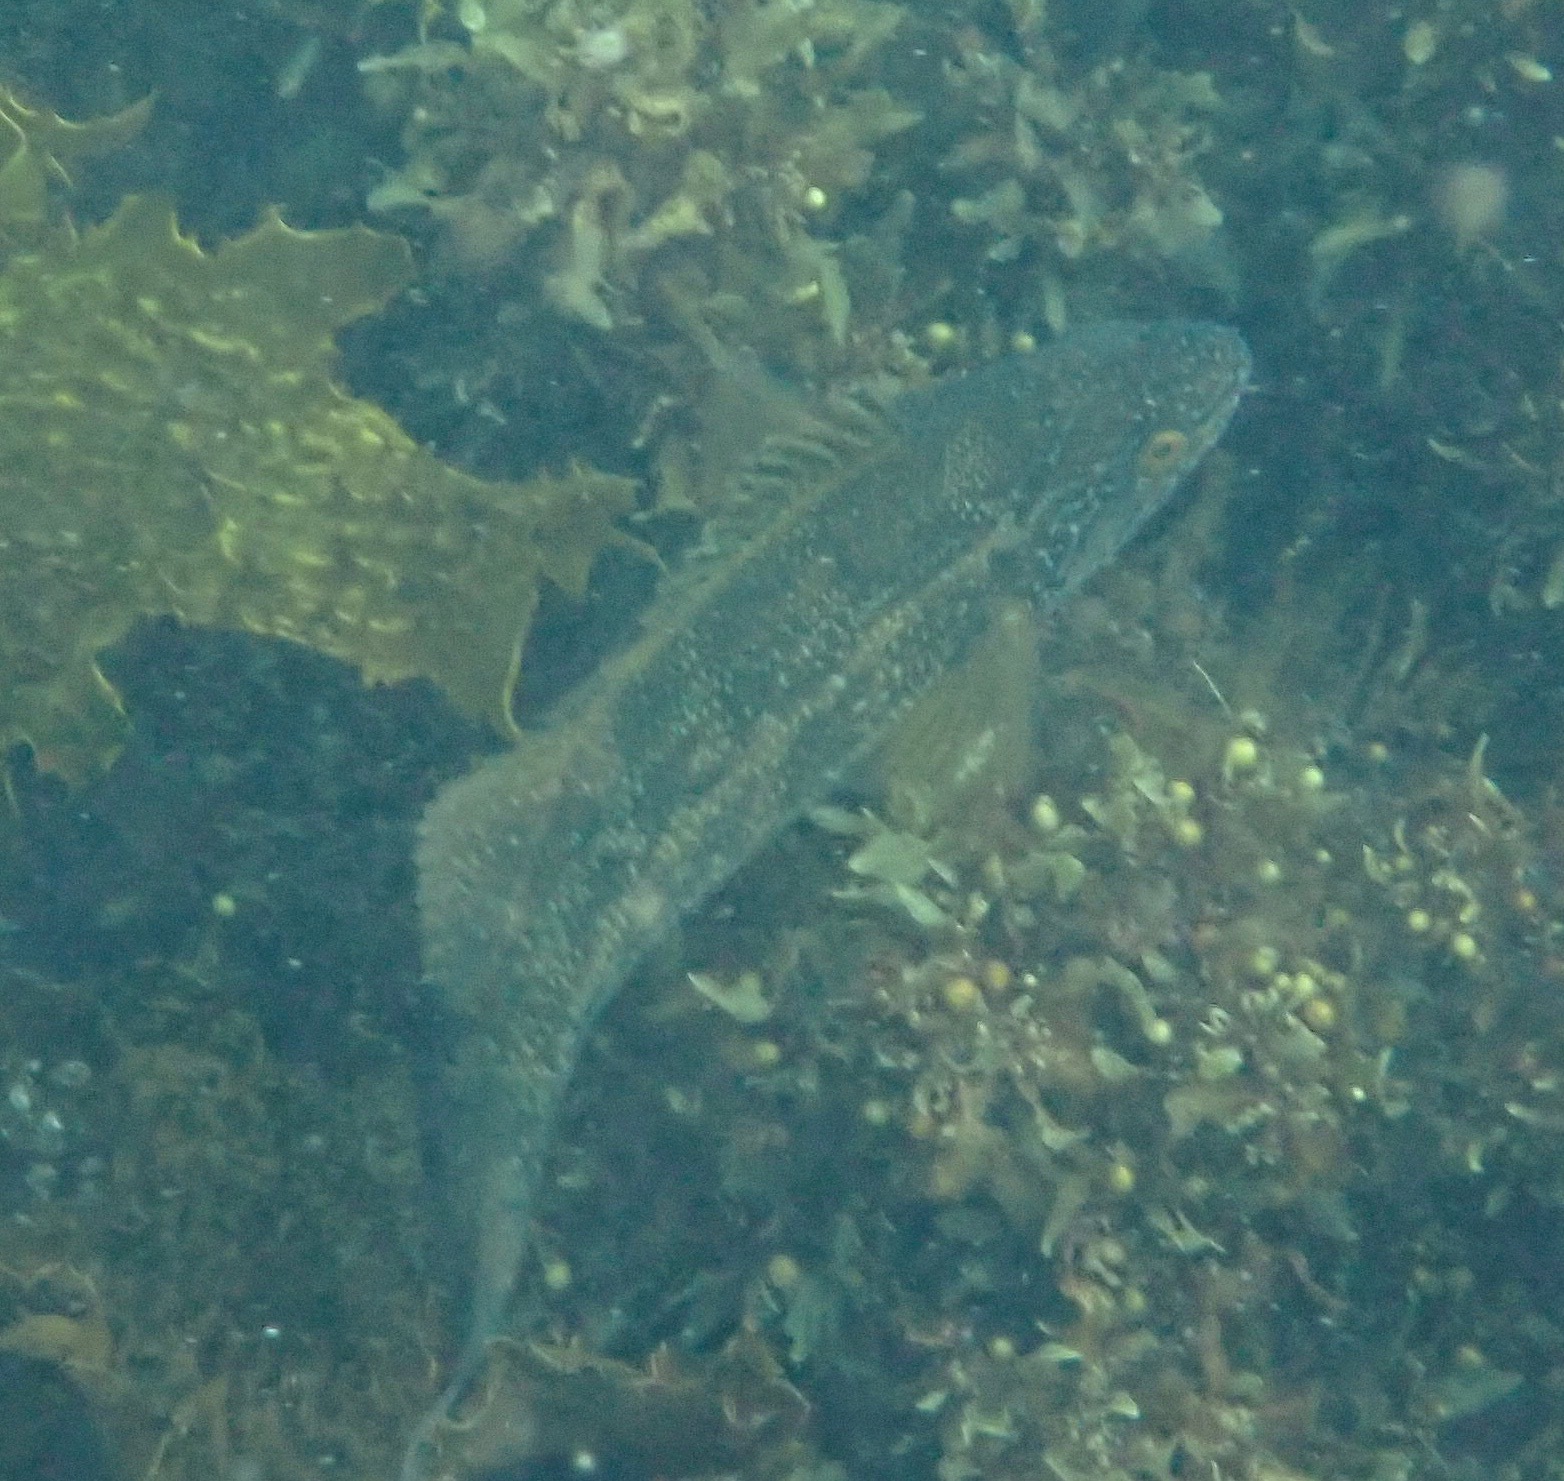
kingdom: Animalia
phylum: Chordata
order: Perciformes
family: Odacidae
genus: Olisthops
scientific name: Olisthops cyanomelas
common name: Herring cale
